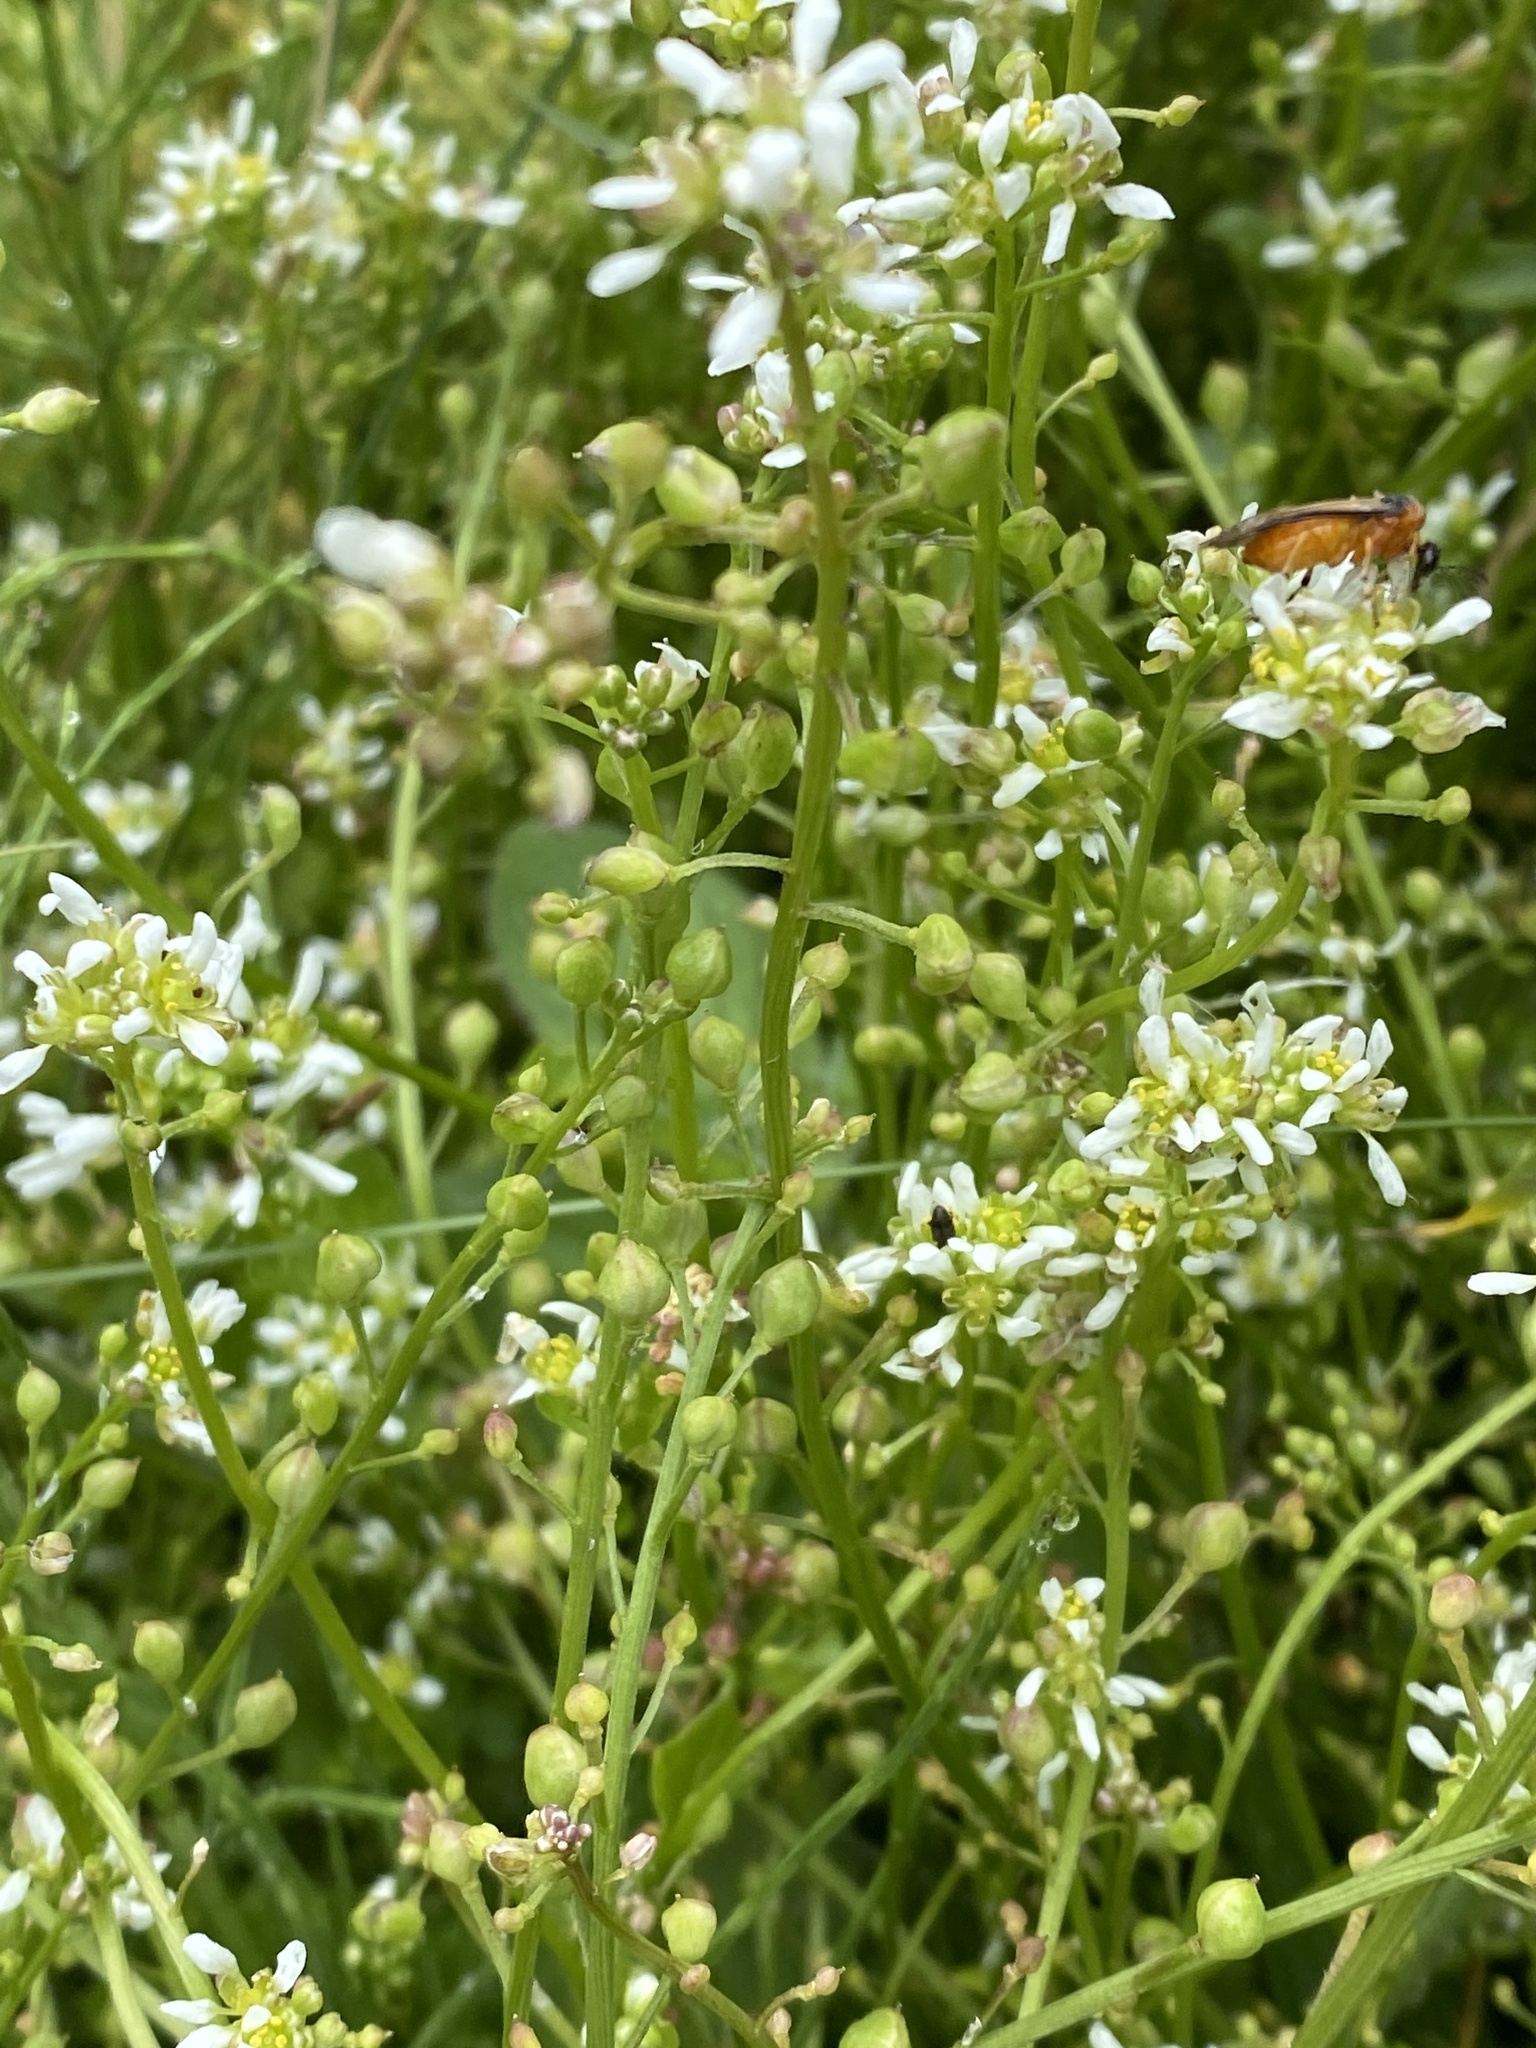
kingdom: Plantae
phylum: Tracheophyta
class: Magnoliopsida
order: Brassicales
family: Brassicaceae
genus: Lepidium
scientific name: Lepidium draba
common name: Hoary cress
